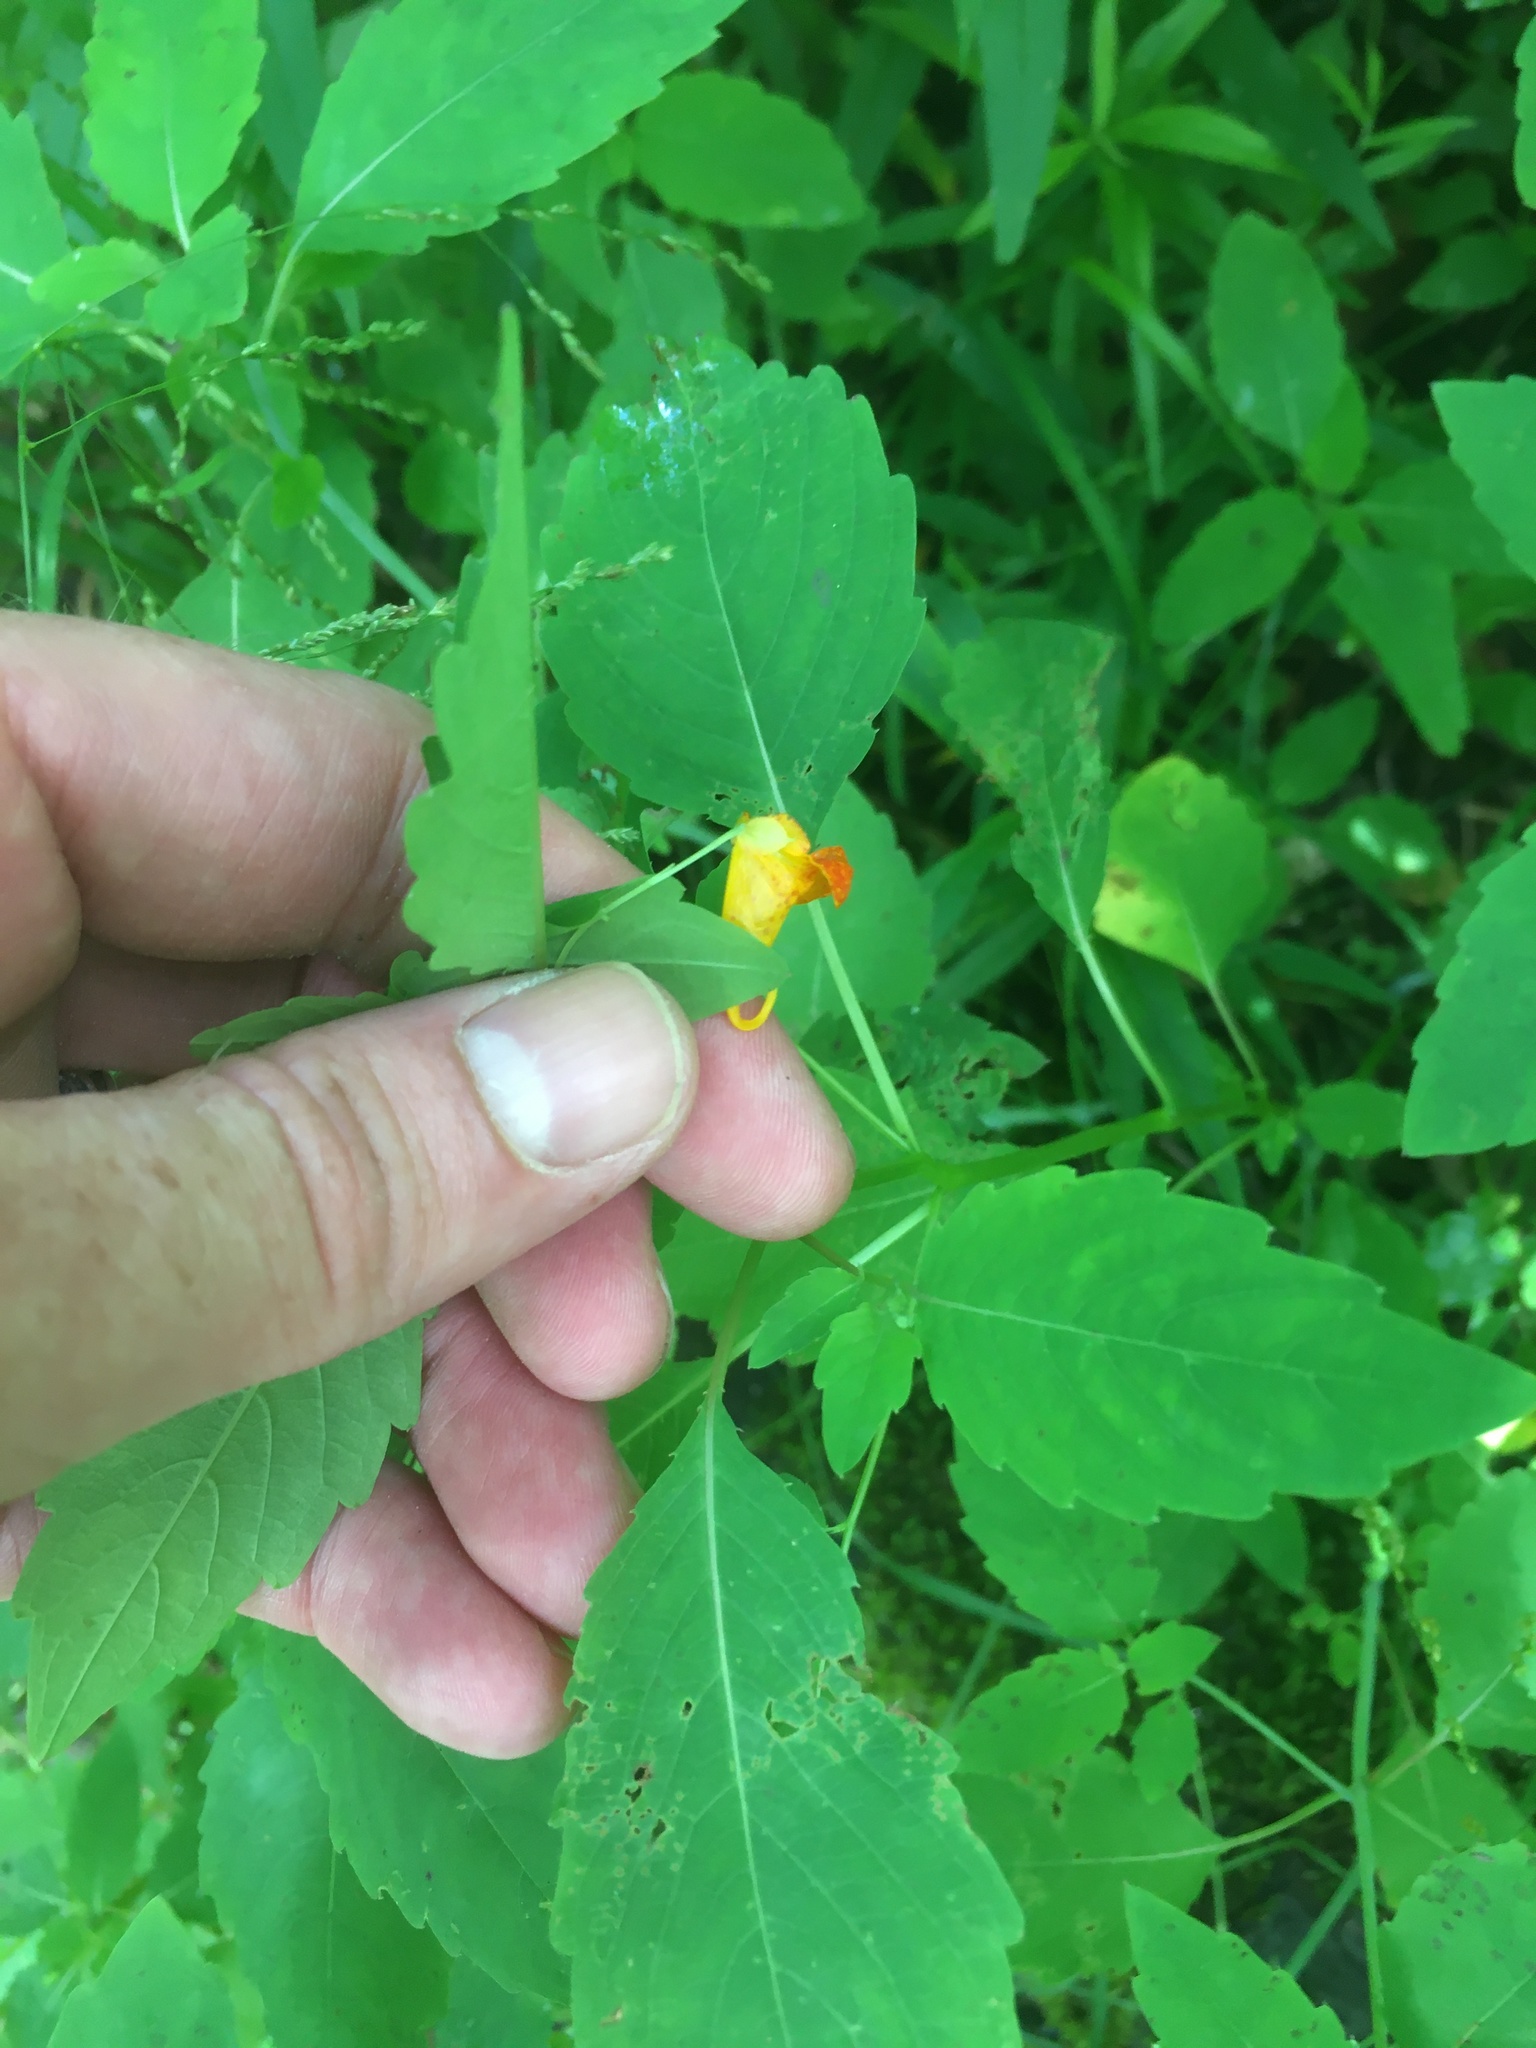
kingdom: Plantae
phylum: Tracheophyta
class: Magnoliopsida
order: Ericales
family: Balsaminaceae
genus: Impatiens
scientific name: Impatiens capensis
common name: Orange balsam
